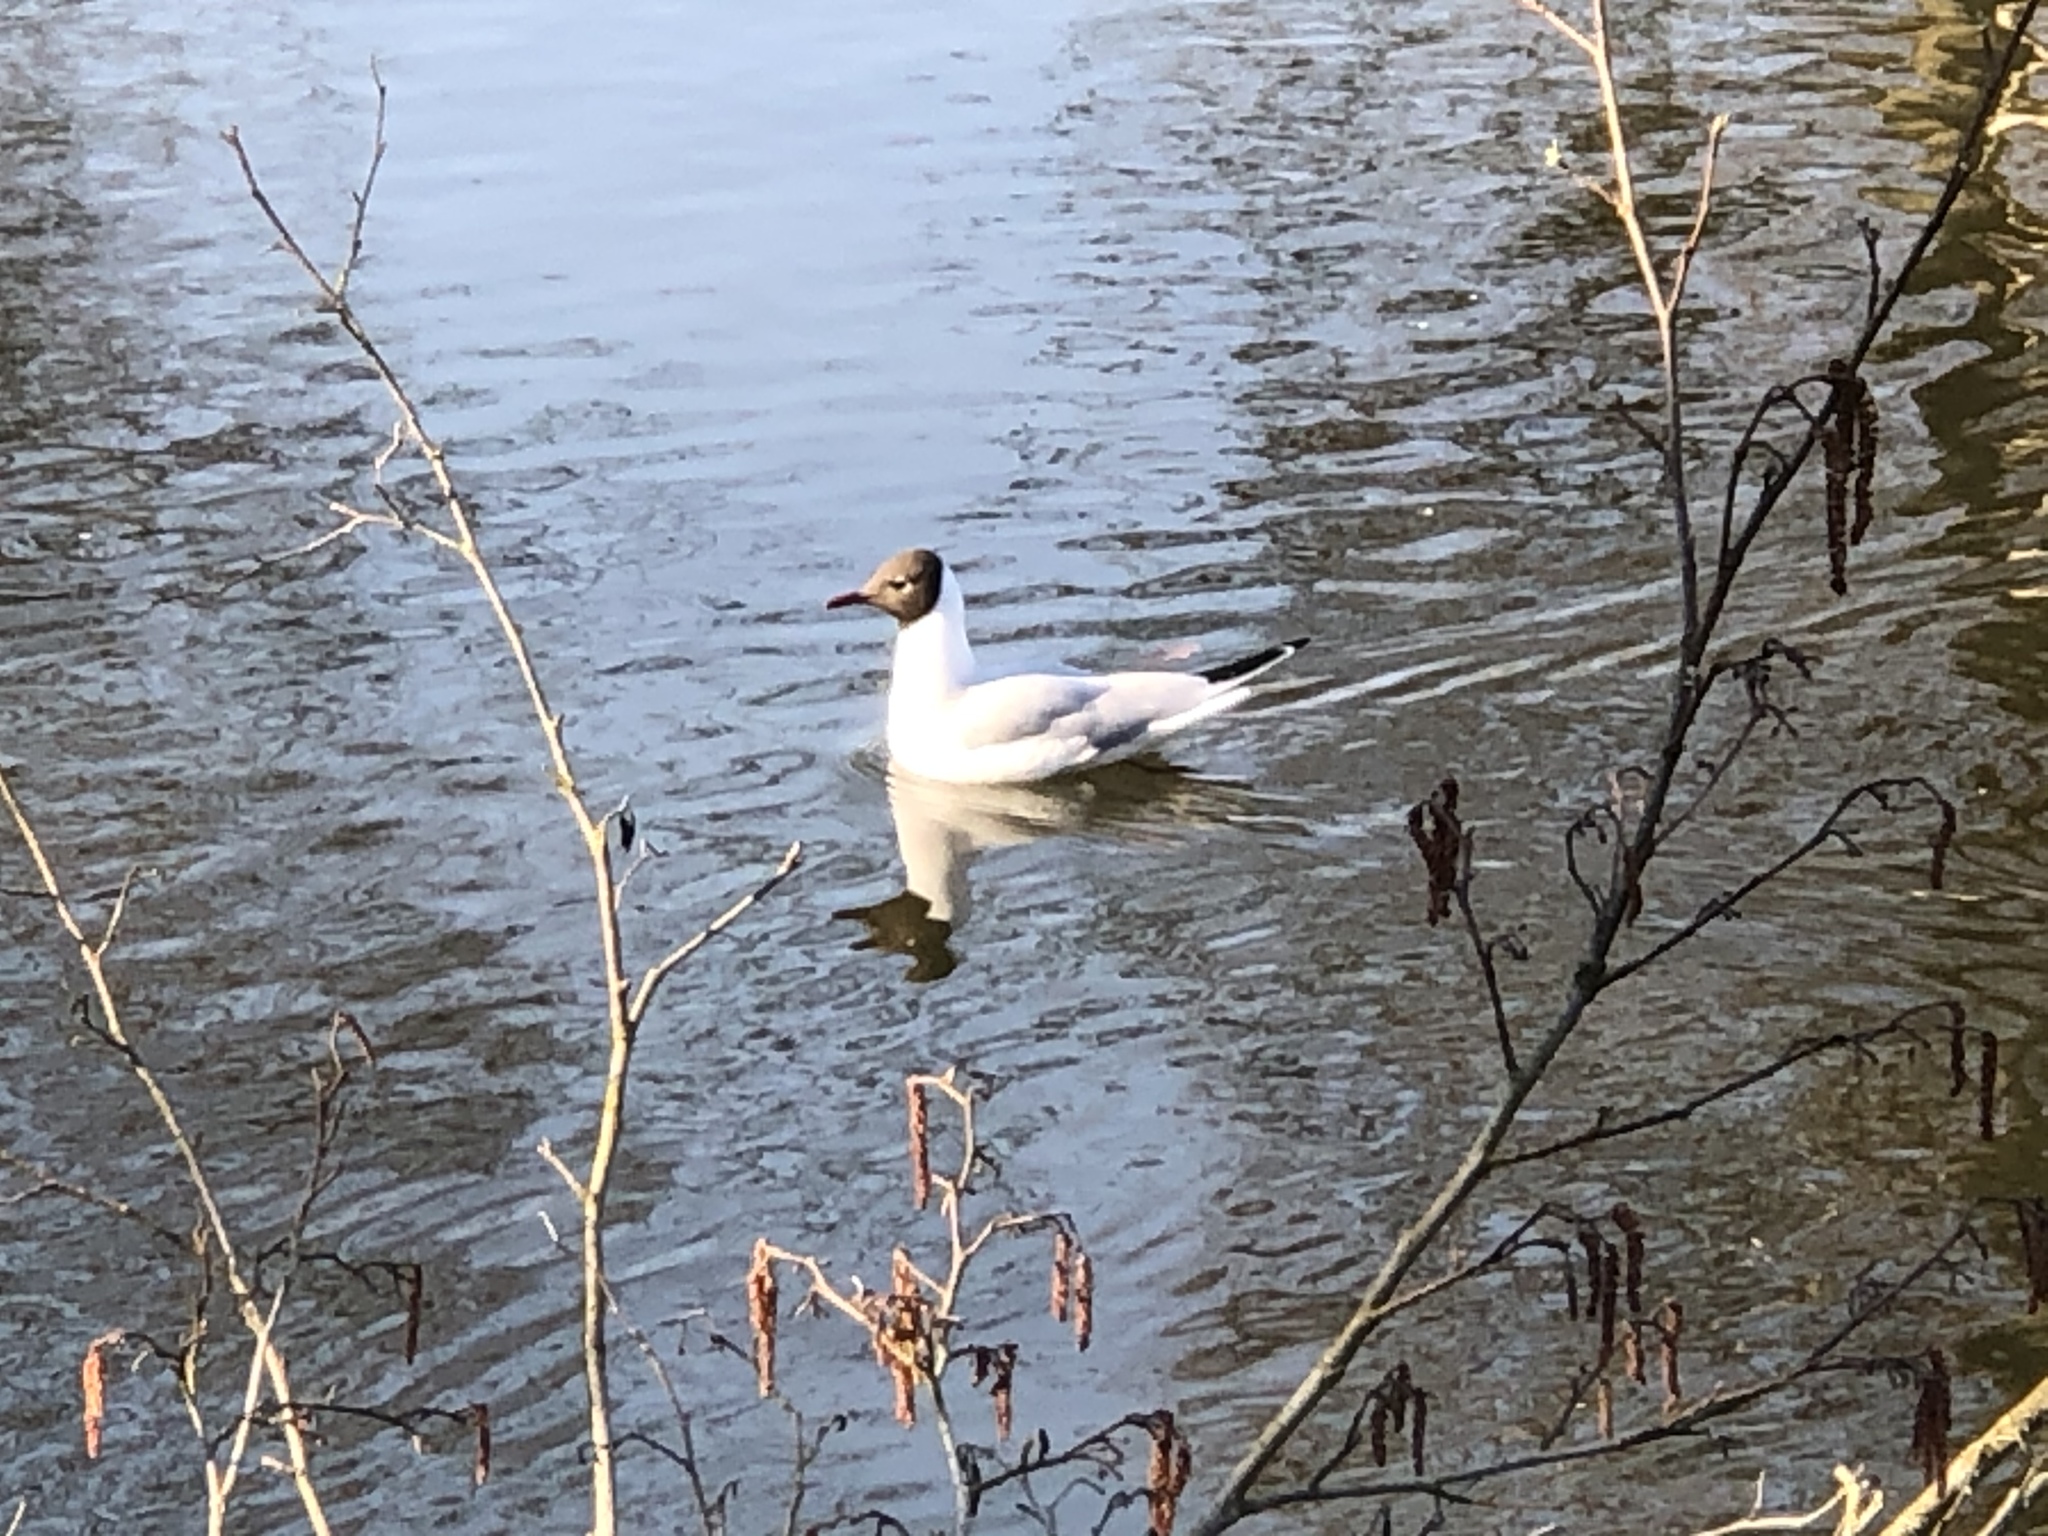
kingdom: Animalia
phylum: Chordata
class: Aves
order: Charadriiformes
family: Laridae
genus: Chroicocephalus
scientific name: Chroicocephalus ridibundus
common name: Black-headed gull
